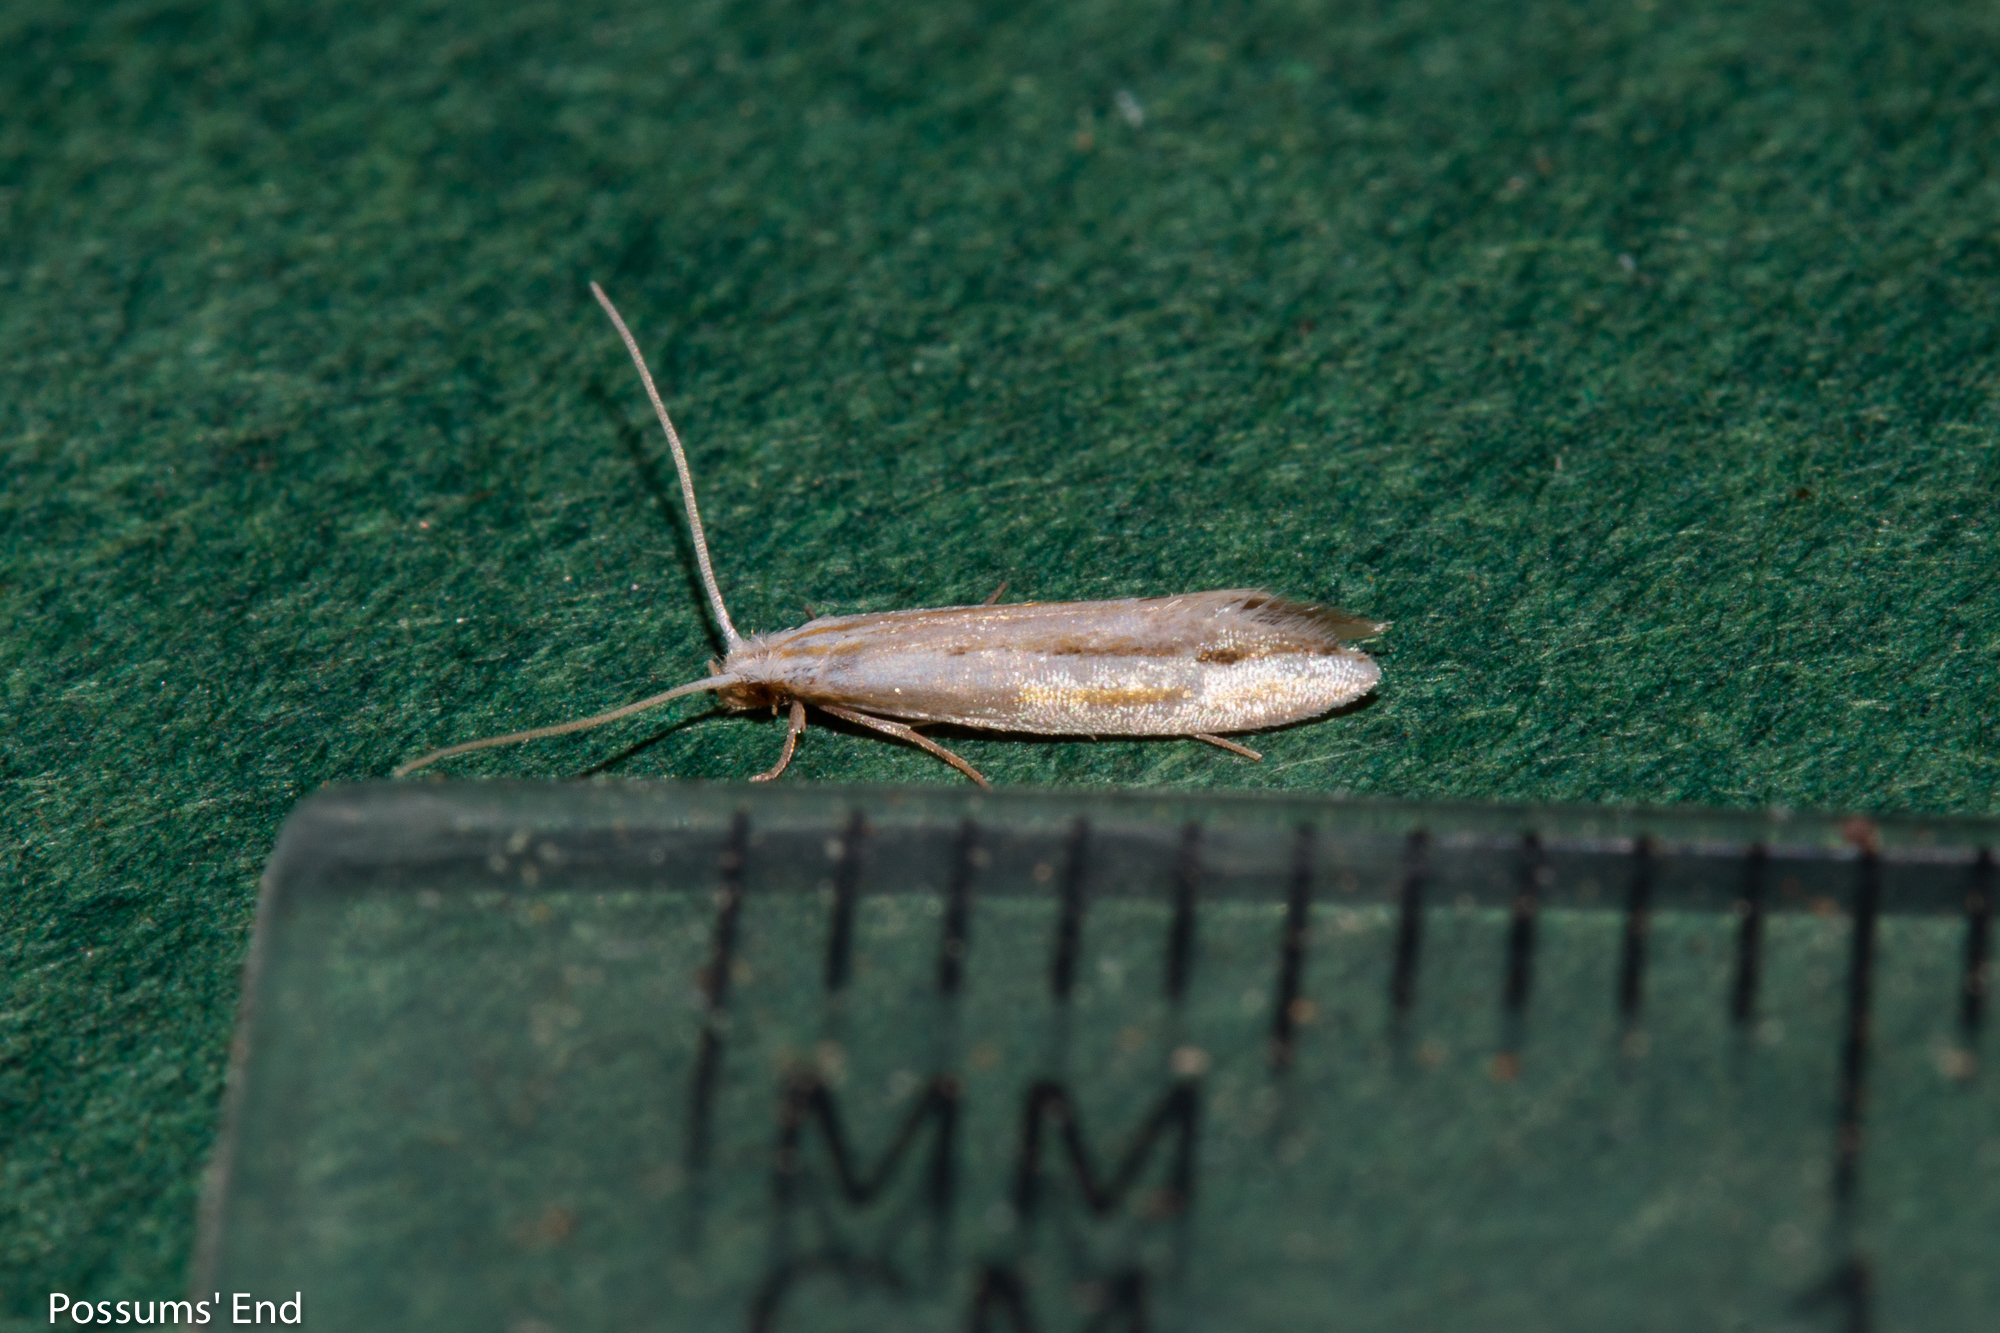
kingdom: Animalia
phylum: Arthropoda
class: Insecta
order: Lepidoptera
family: Tineidae
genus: Sagephora
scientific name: Sagephora exsanguis
